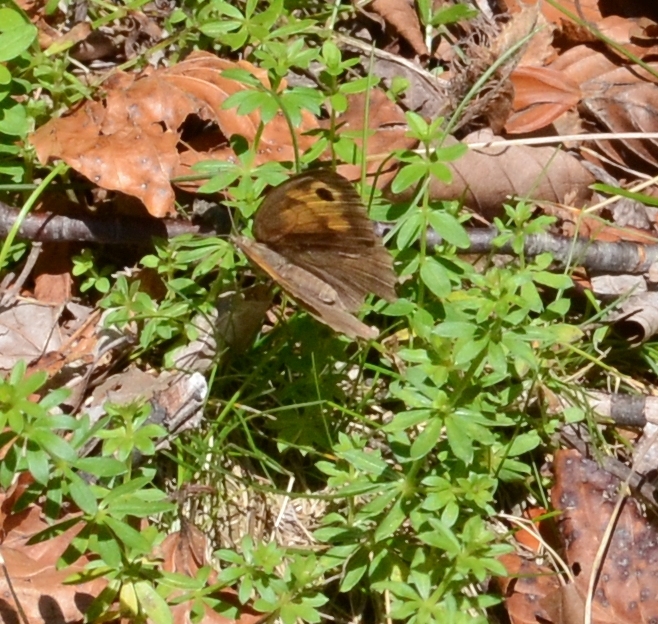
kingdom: Animalia
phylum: Arthropoda
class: Insecta
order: Lepidoptera
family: Nymphalidae
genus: Maniola
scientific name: Maniola jurtina
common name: Meadow brown
